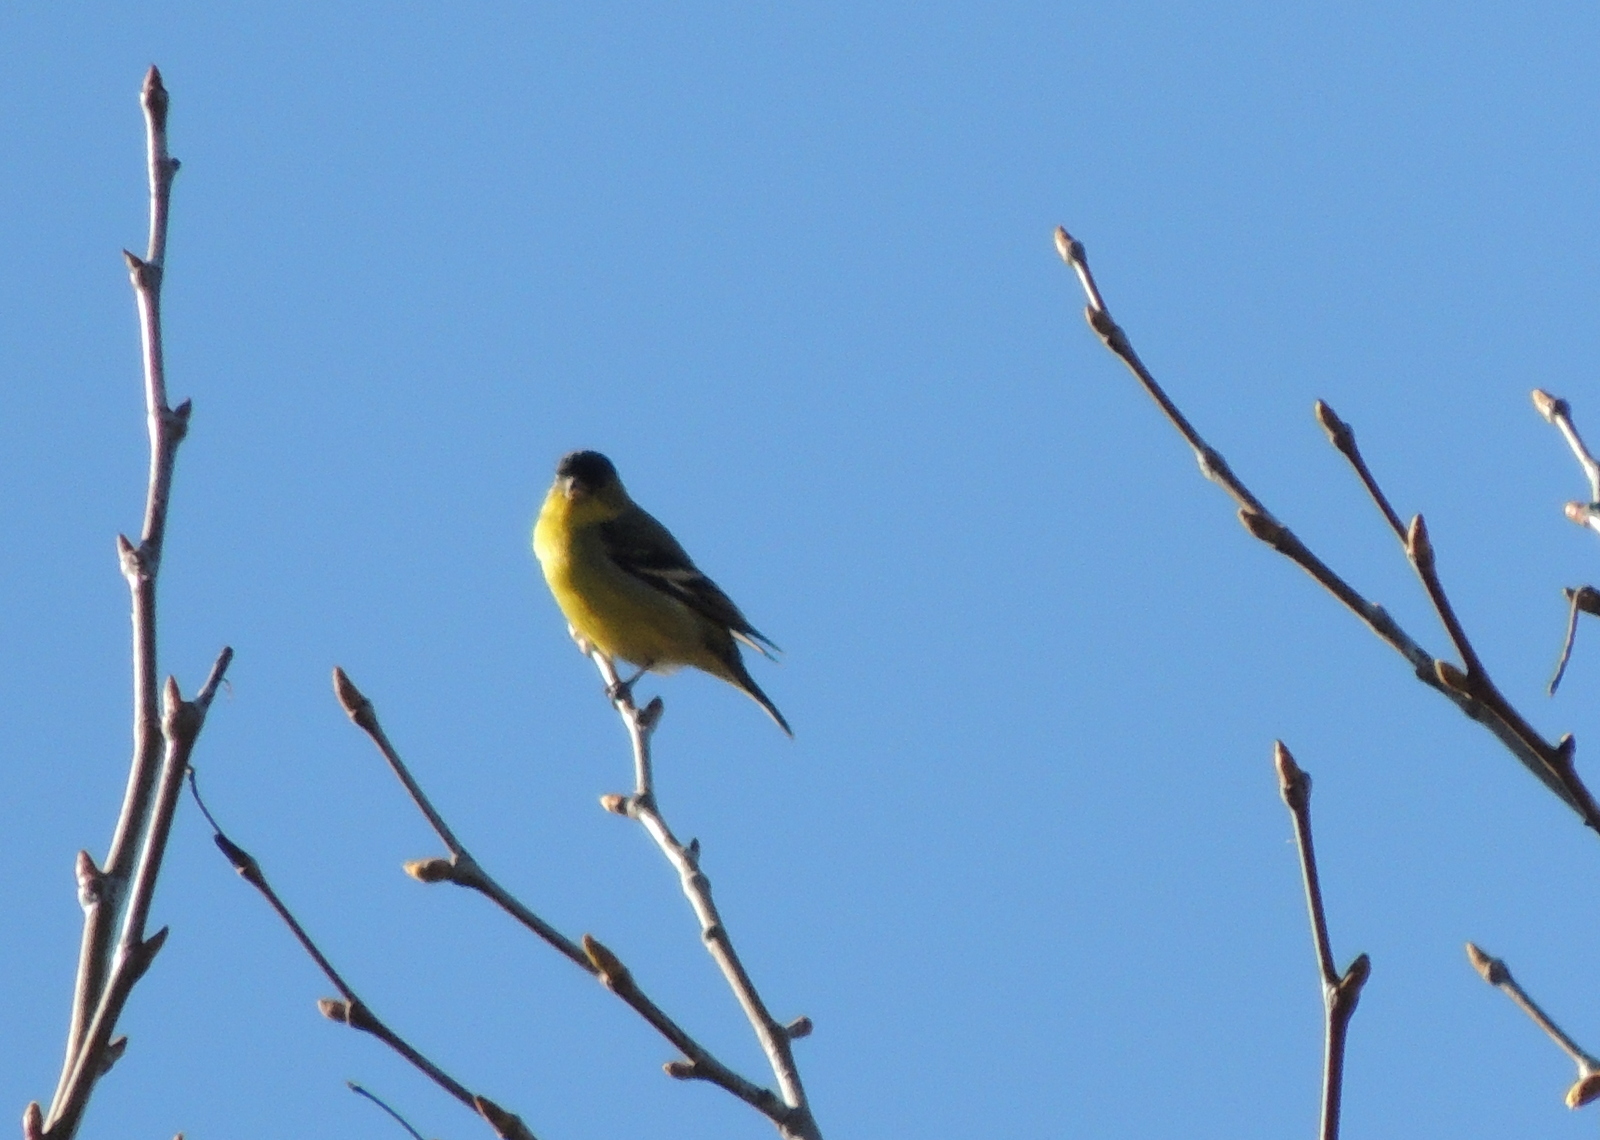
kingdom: Animalia
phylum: Chordata
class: Aves
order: Passeriformes
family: Fringillidae
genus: Spinus
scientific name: Spinus psaltria
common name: Lesser goldfinch
